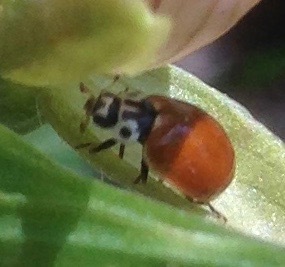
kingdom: Animalia
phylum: Arthropoda
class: Insecta
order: Coleoptera
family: Coccinellidae
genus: Cycloneda
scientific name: Cycloneda polita
